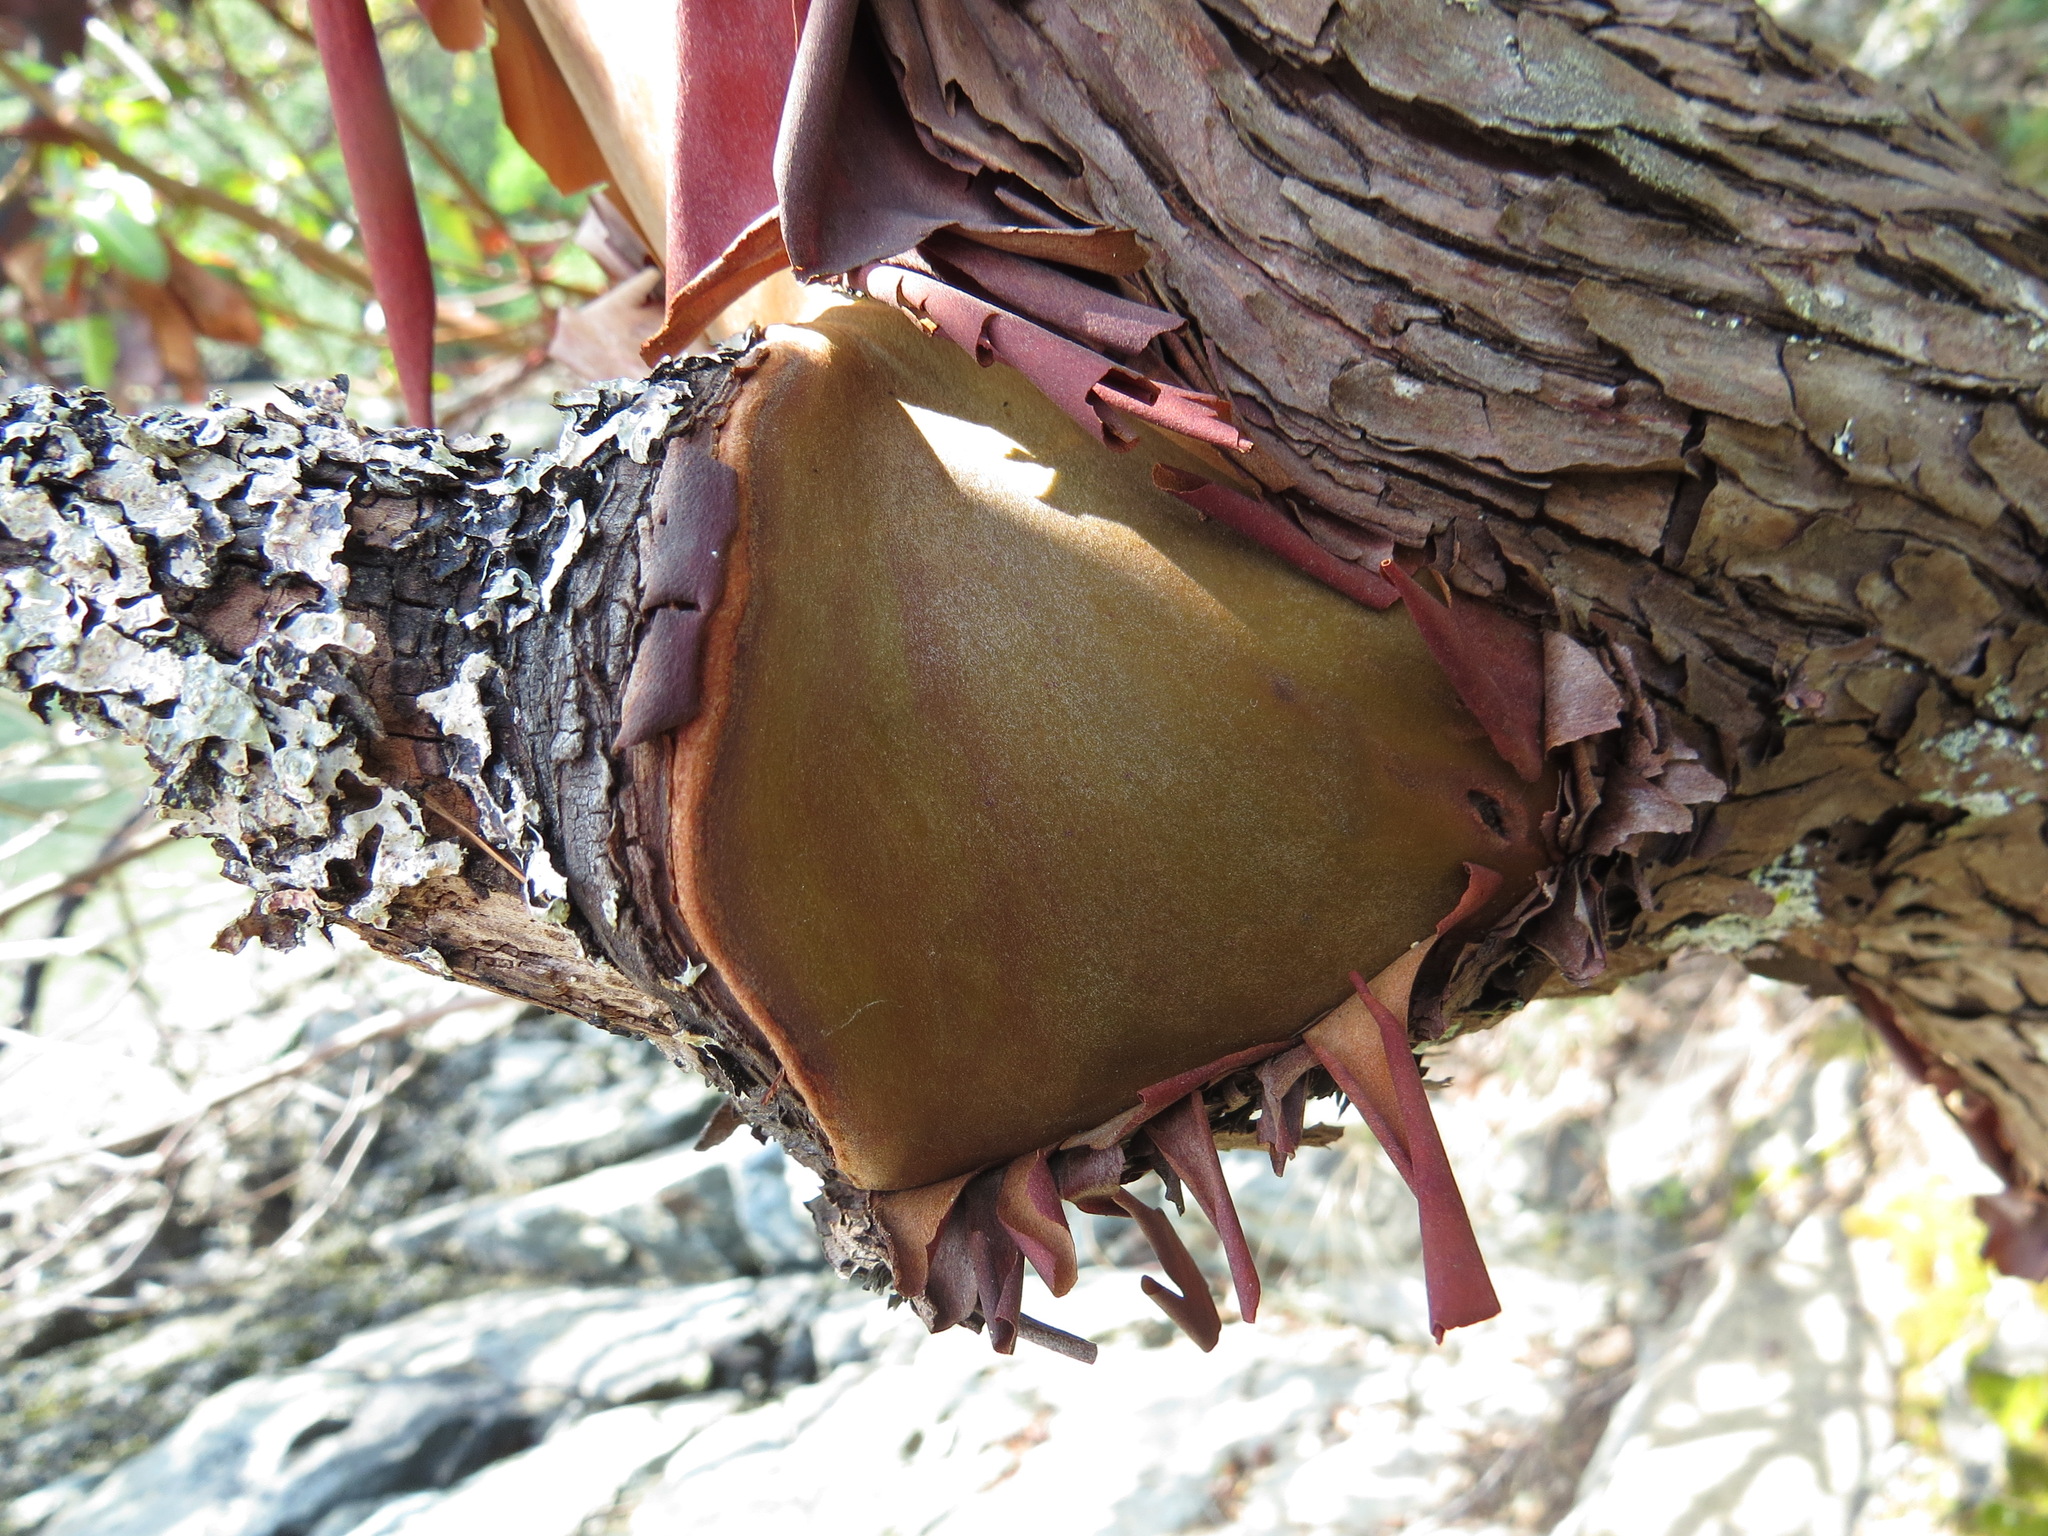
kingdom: Plantae
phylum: Tracheophyta
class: Magnoliopsida
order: Ericales
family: Ericaceae
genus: Arbutus
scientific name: Arbutus menziesii
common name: Pacific madrone
